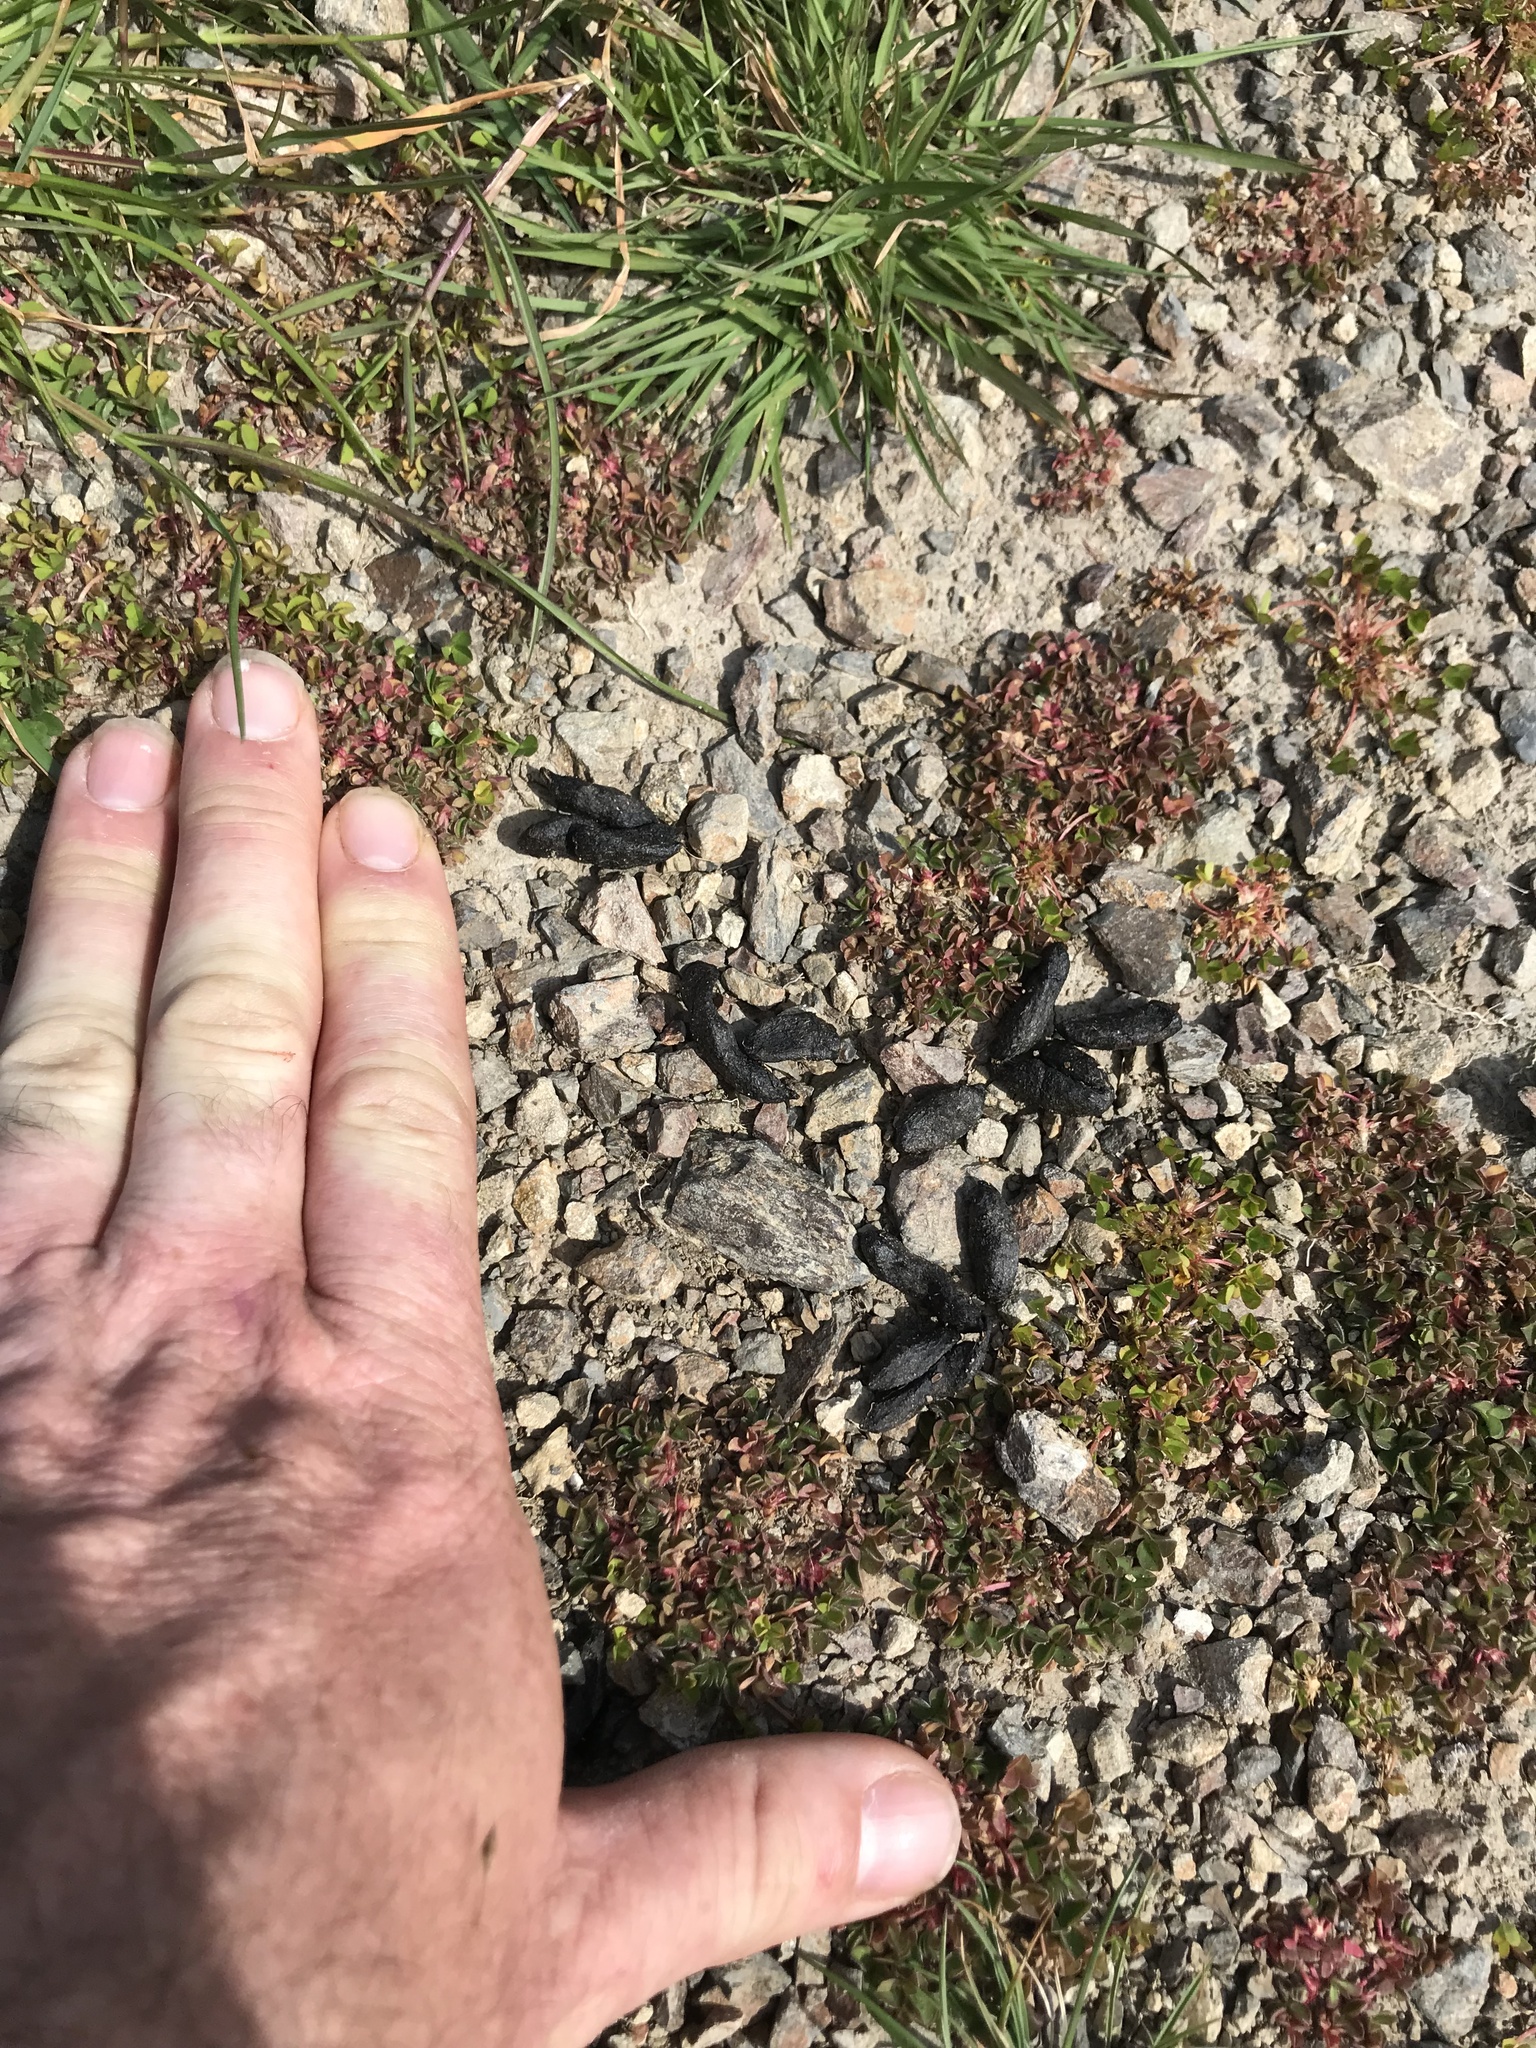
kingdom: Animalia
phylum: Chordata
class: Mammalia
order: Diprotodontia
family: Phalangeridae
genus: Trichosurus
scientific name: Trichosurus vulpecula
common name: Common brushtail
